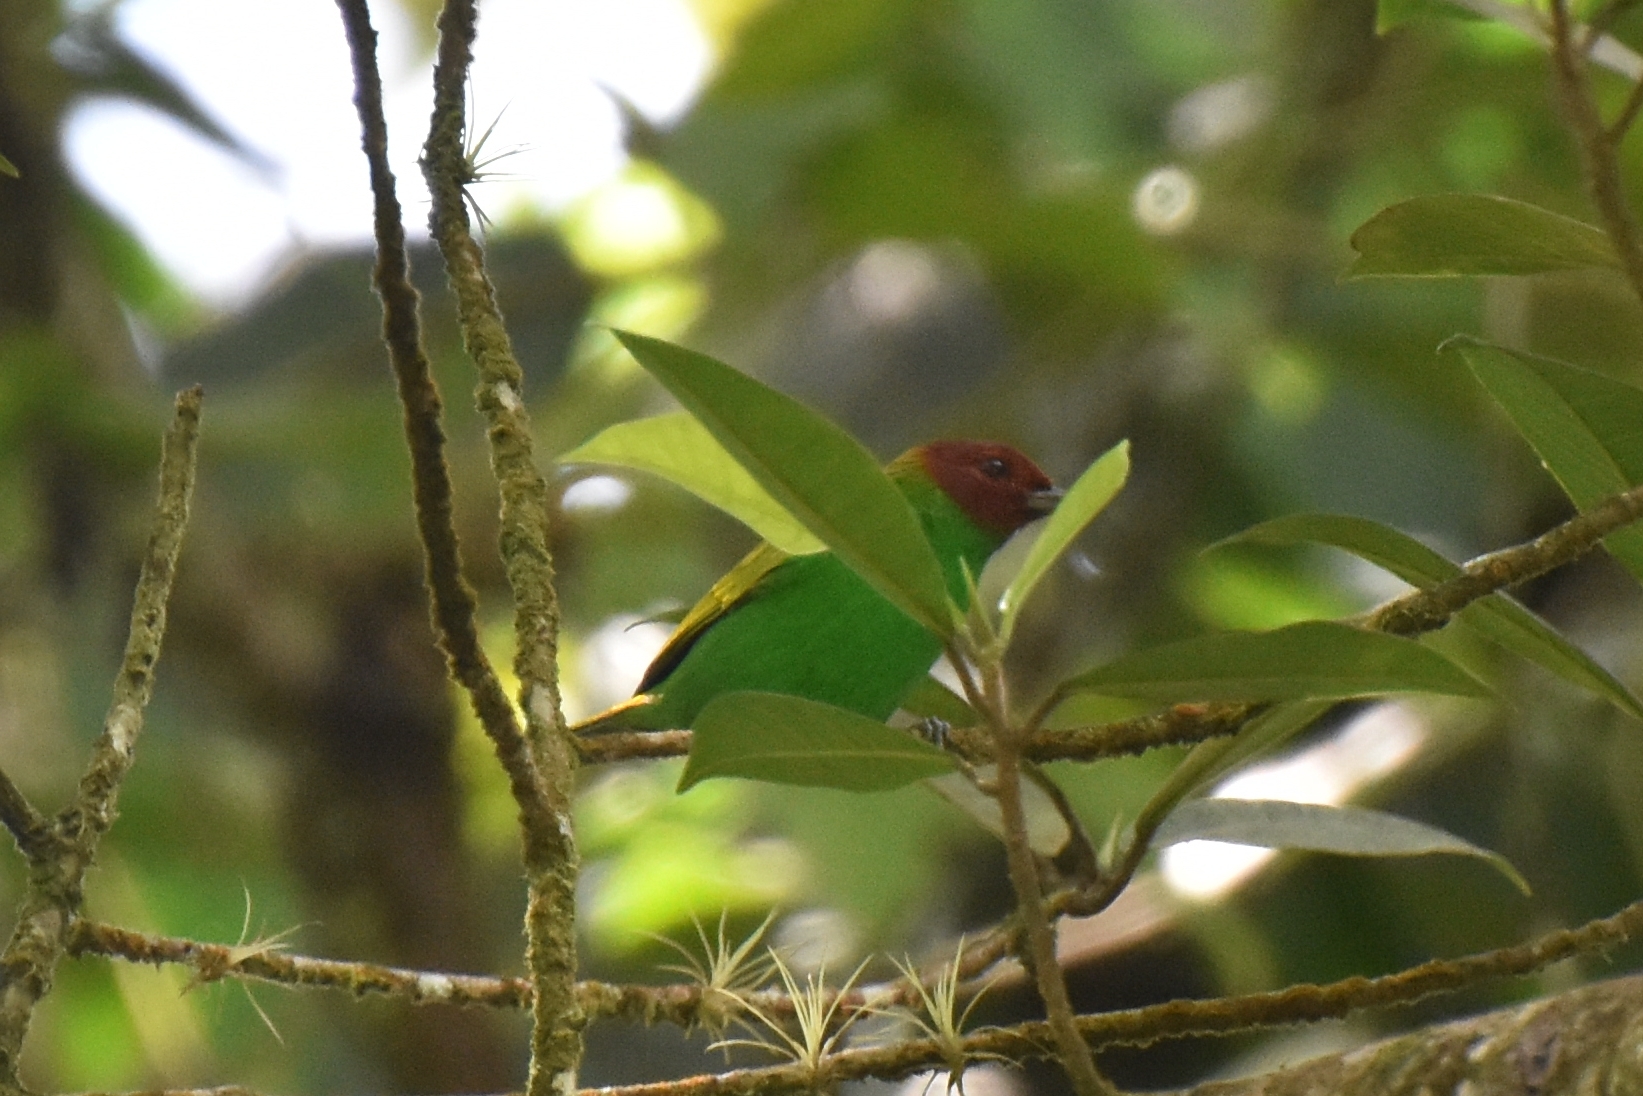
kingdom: Animalia
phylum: Chordata
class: Aves
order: Passeriformes
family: Thraupidae
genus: Tangara
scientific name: Tangara gyrola
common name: Bay-headed tanager
